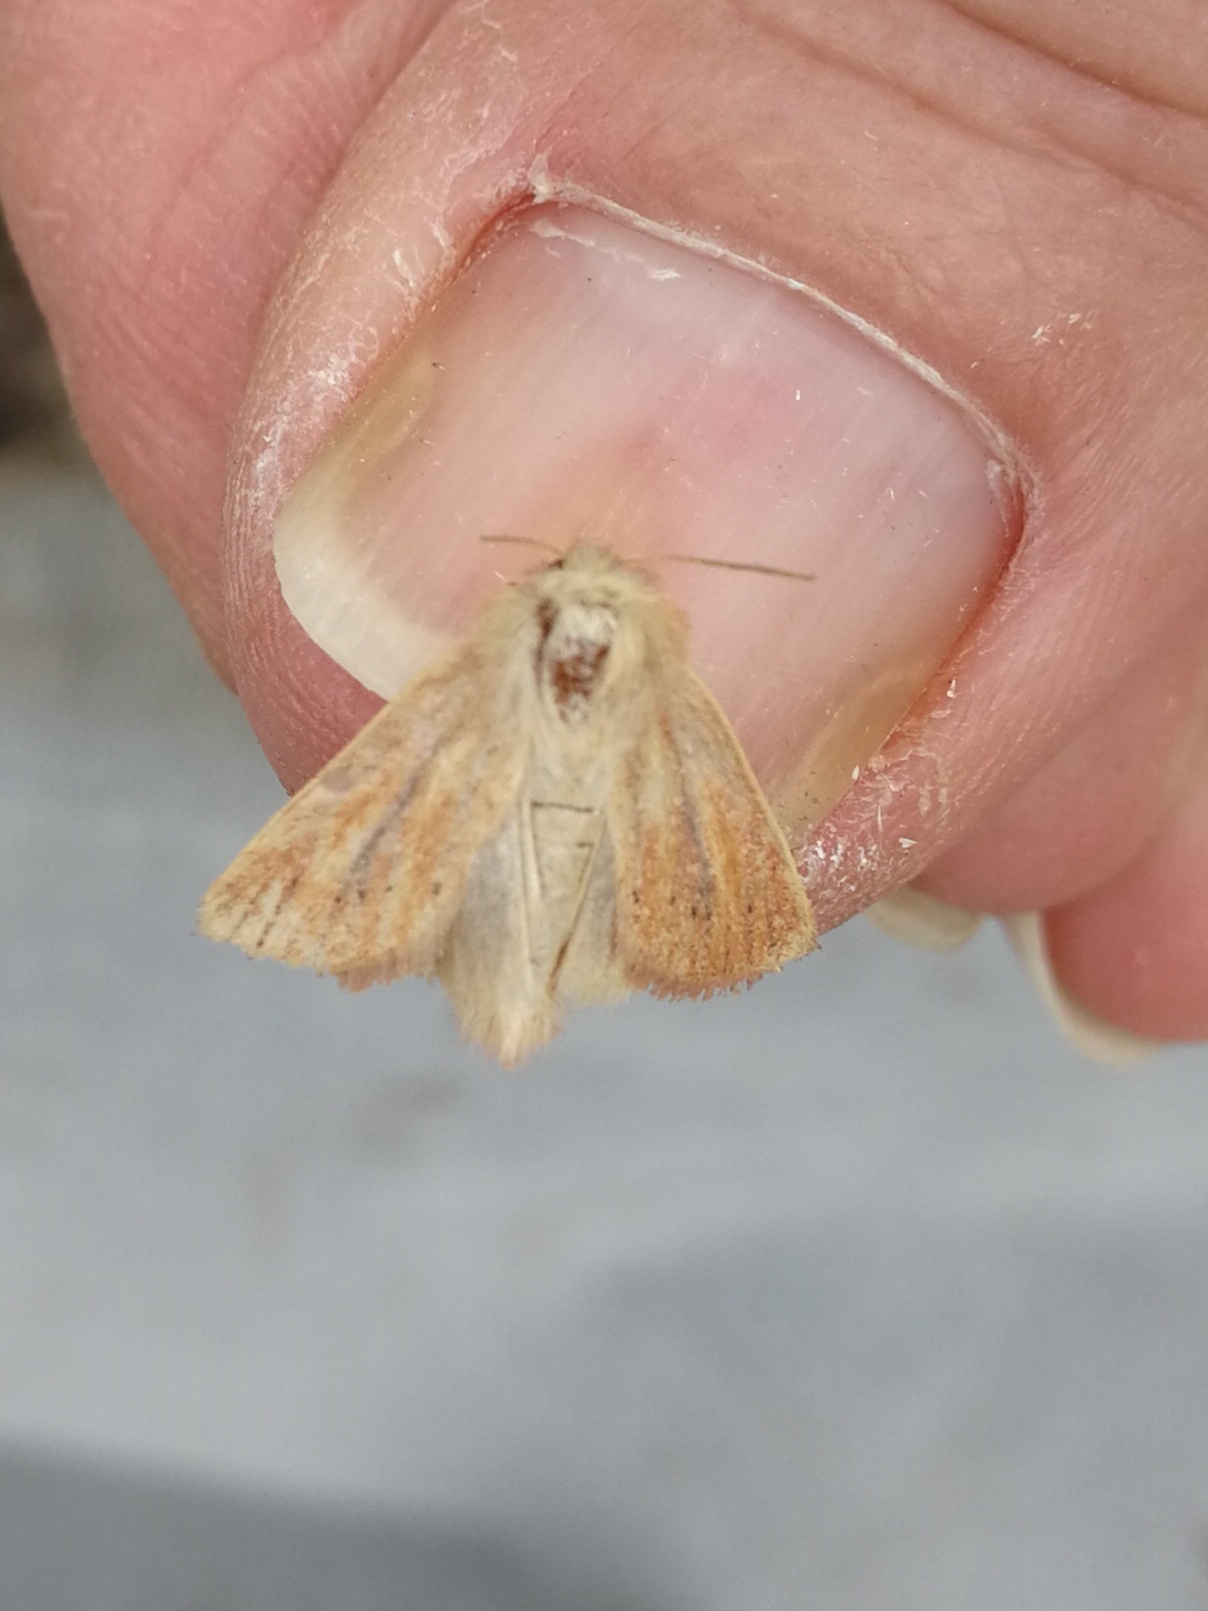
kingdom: Animalia
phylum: Arthropoda
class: Insecta
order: Lepidoptera
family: Noctuidae
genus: Denticucullus
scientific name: Denticucullus pygmina
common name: Small wainscot
